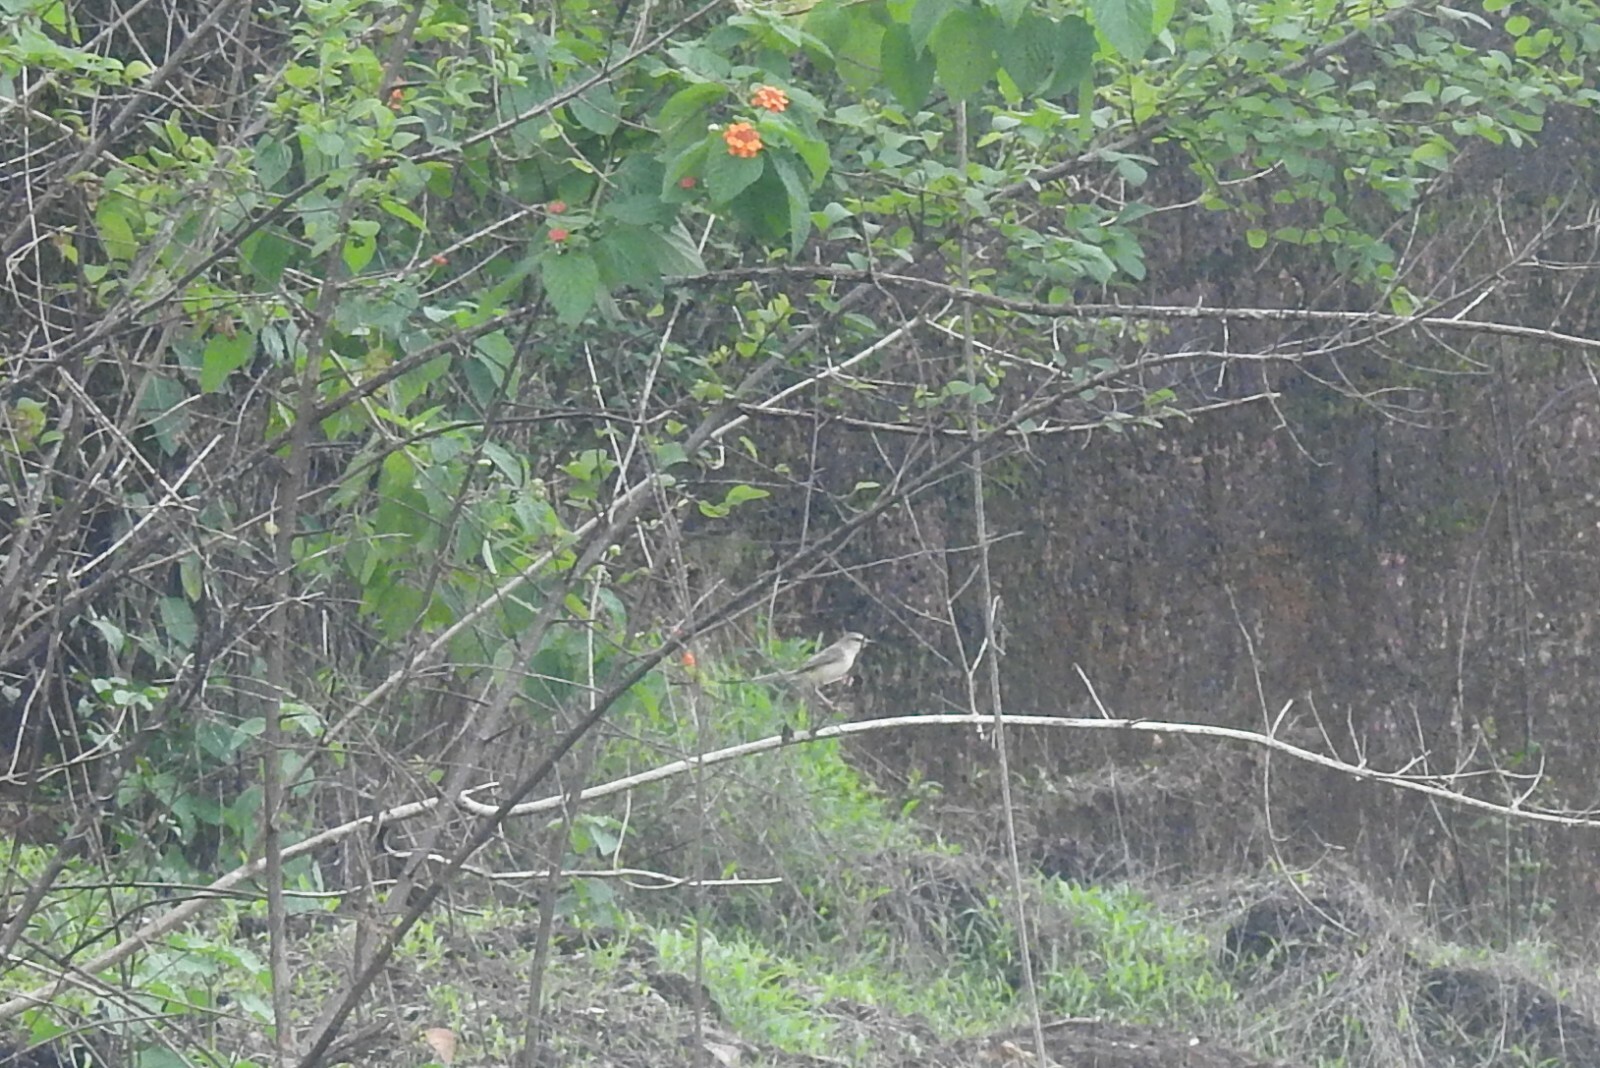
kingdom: Animalia
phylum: Chordata
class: Aves
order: Passeriformes
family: Cisticolidae
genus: Prinia
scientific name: Prinia inornata
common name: Plain prinia
